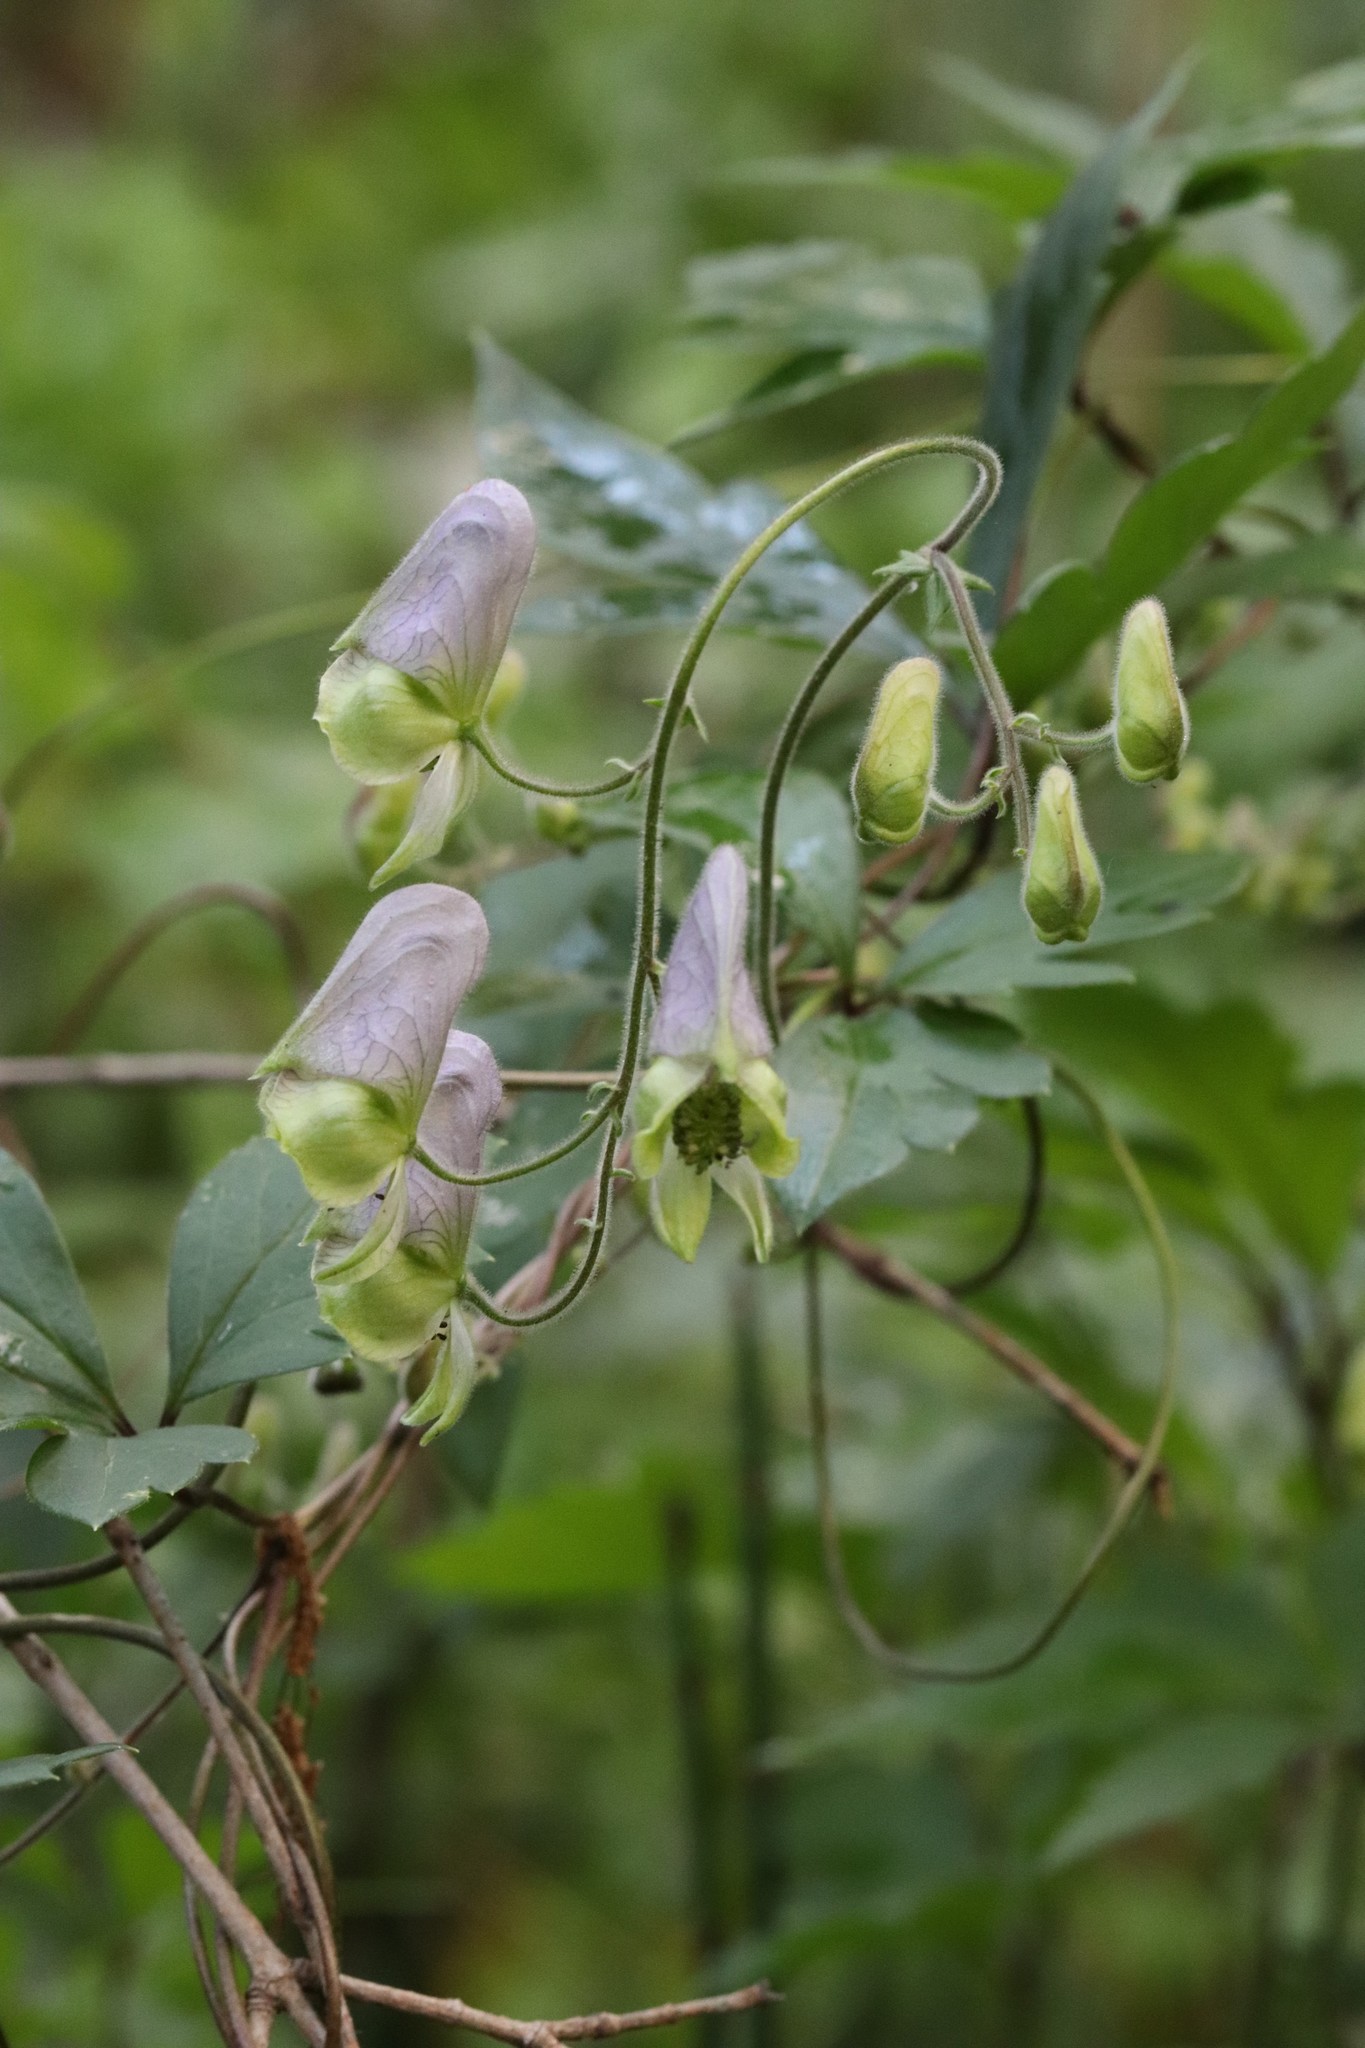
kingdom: Plantae
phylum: Tracheophyta
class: Magnoliopsida
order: Ranunculales
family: Ranunculaceae
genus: Aconitum
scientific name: Aconitum stoloniferum
